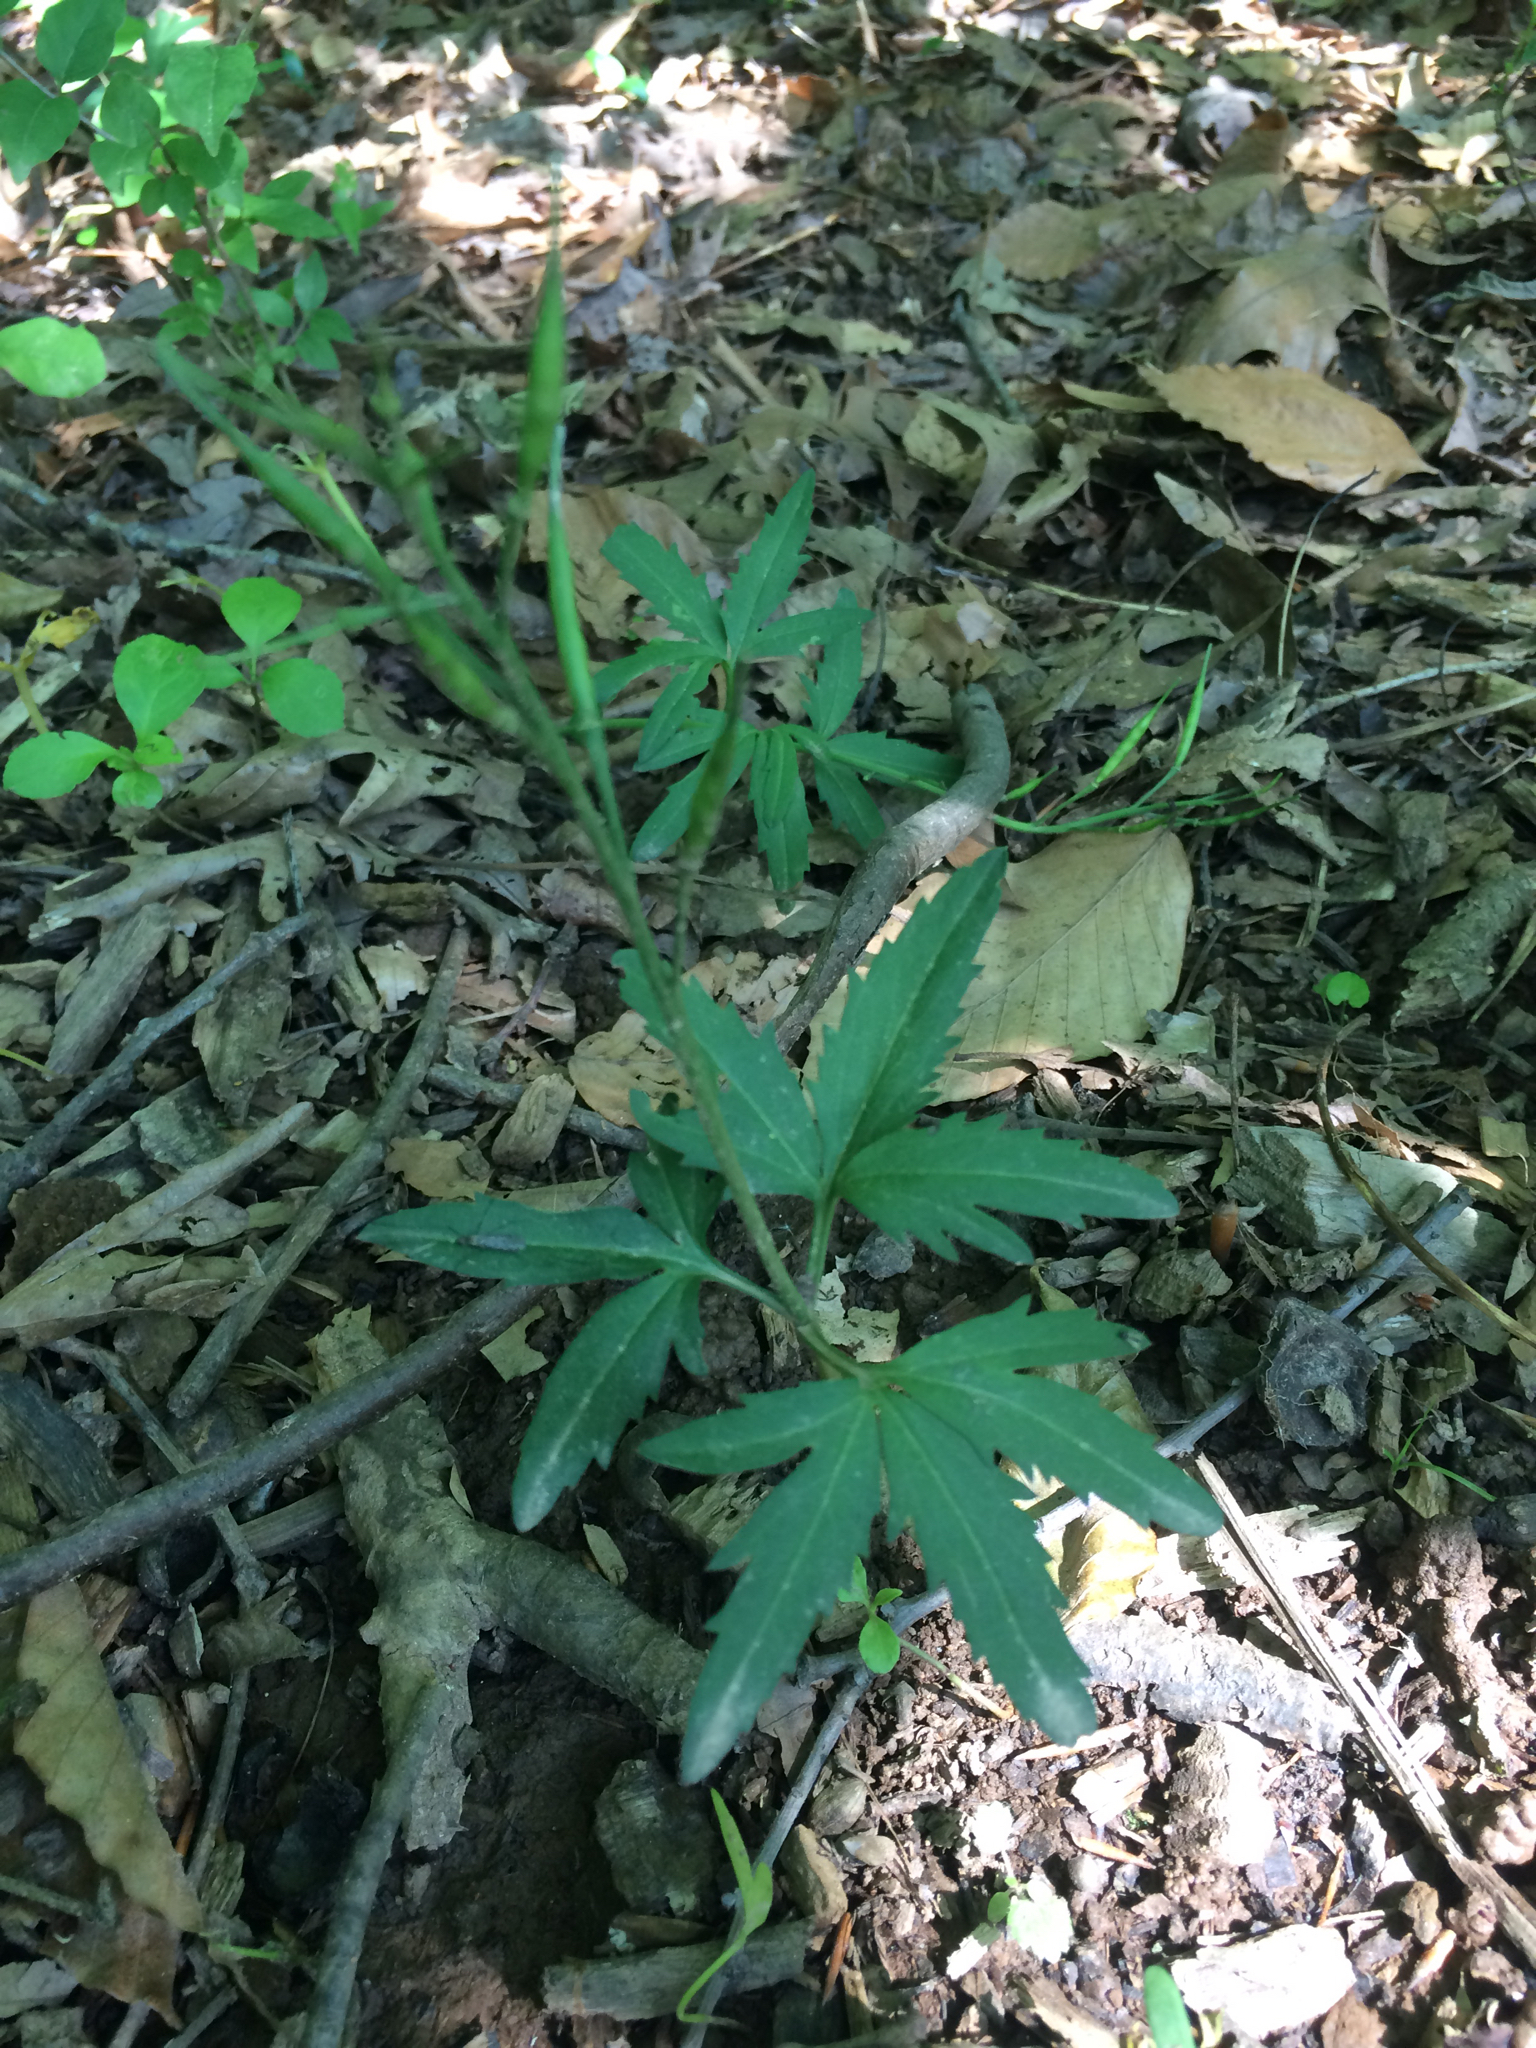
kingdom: Plantae
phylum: Tracheophyta
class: Magnoliopsida
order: Brassicales
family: Brassicaceae
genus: Cardamine
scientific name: Cardamine concatenata
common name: Cut-leaf toothcup
